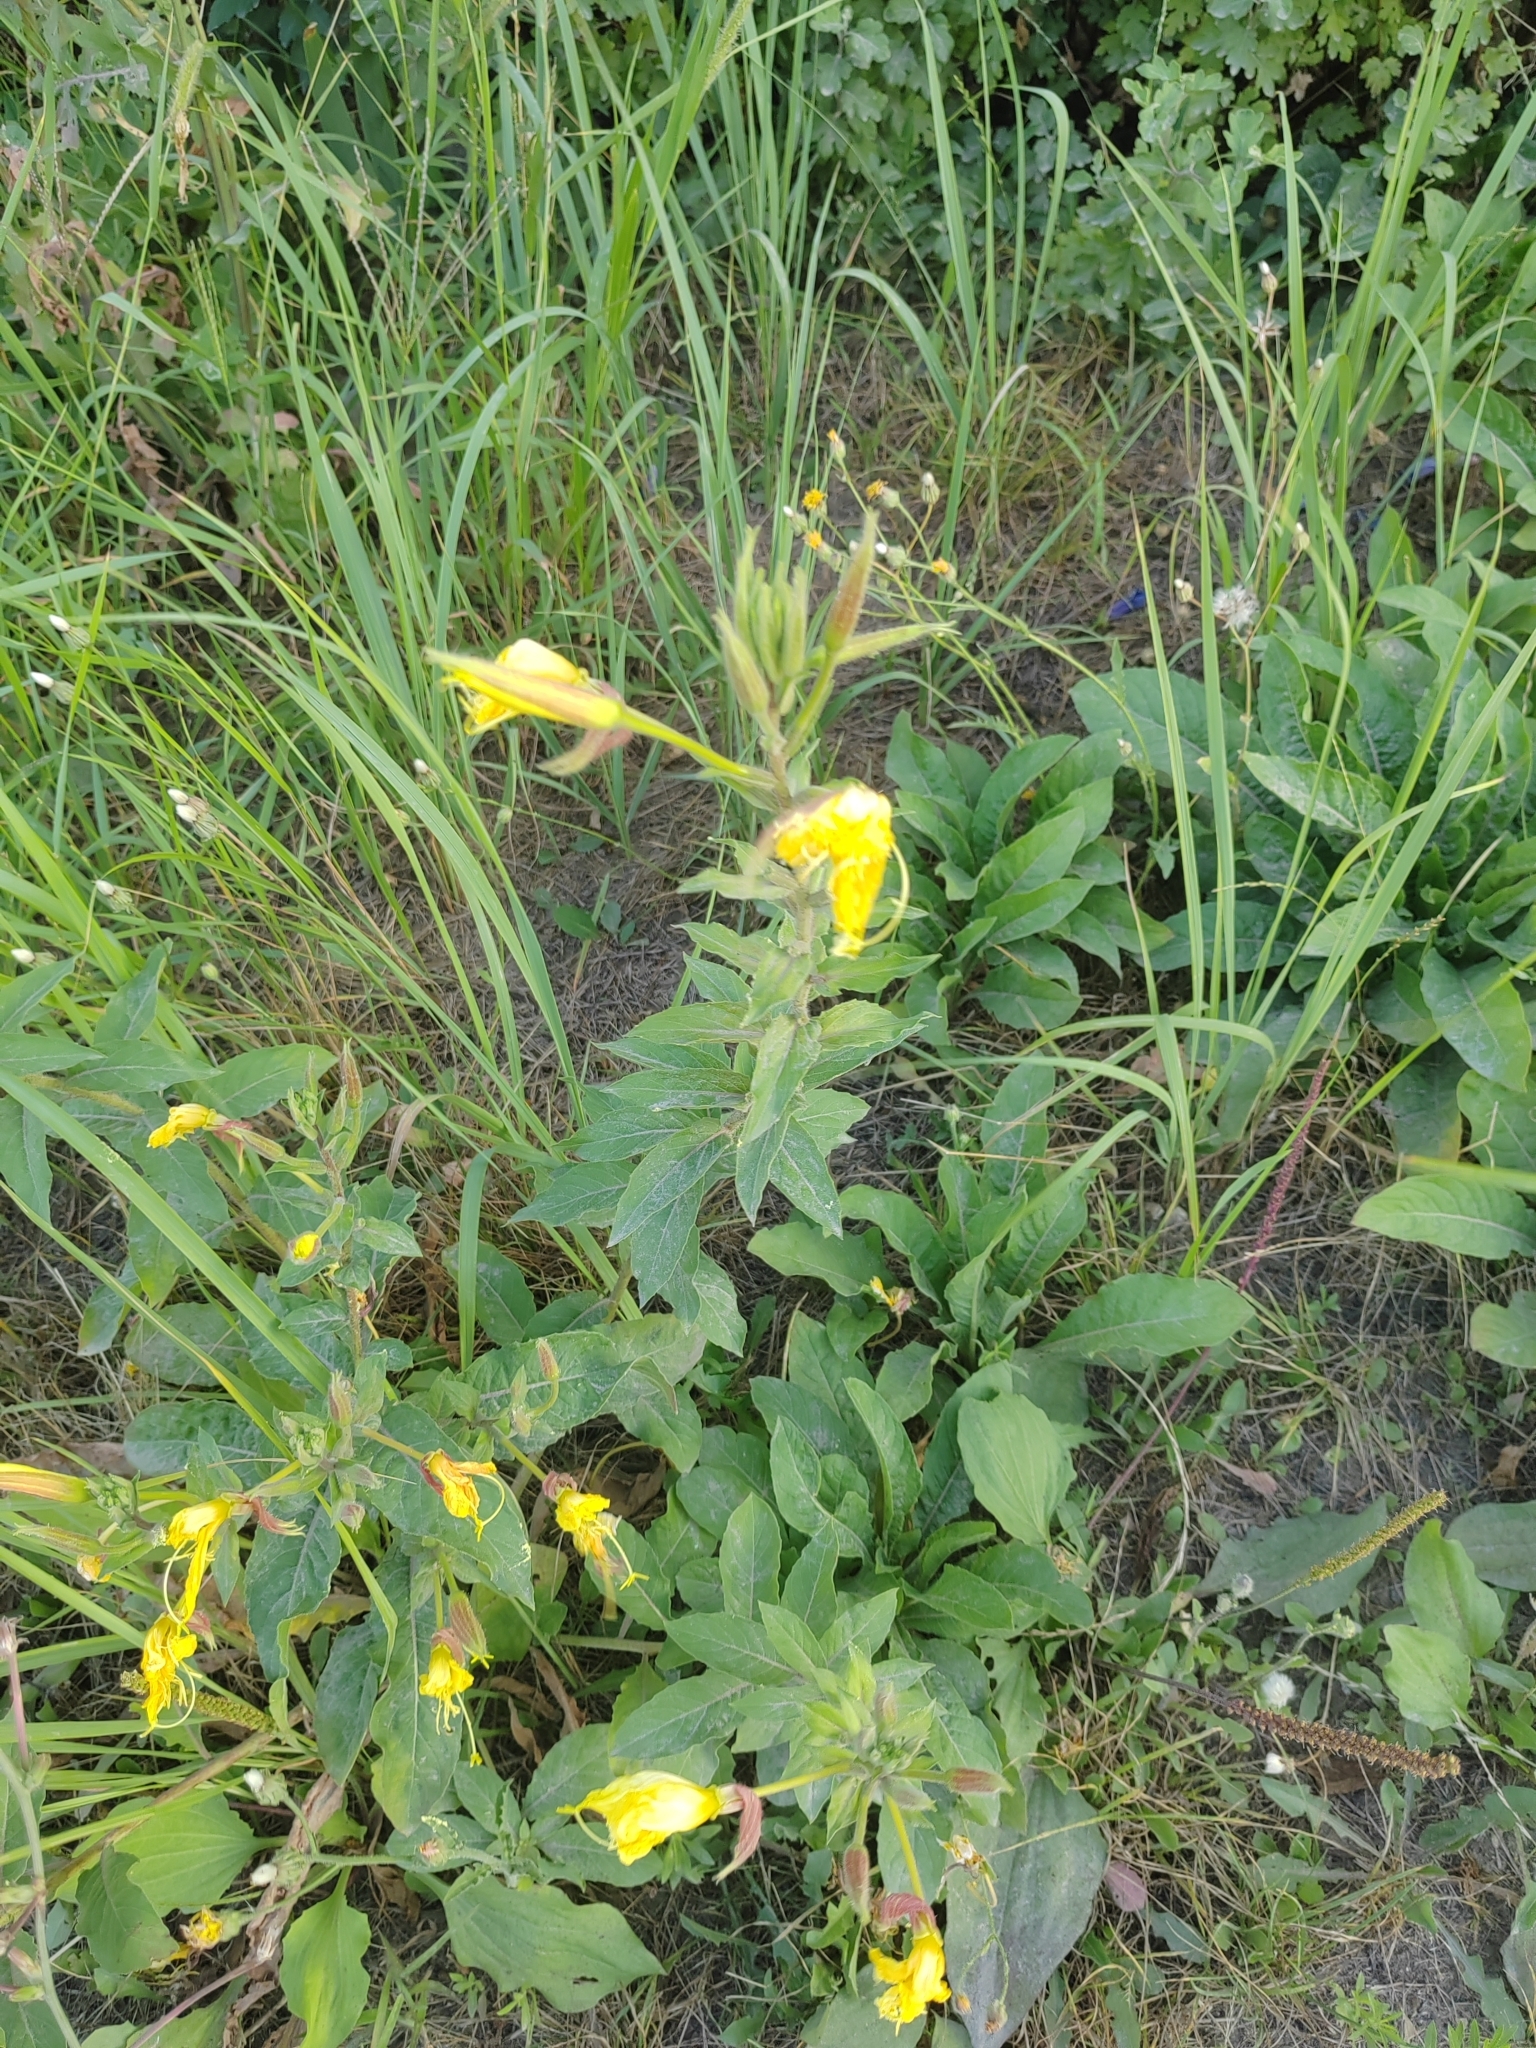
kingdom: Plantae
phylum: Tracheophyta
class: Magnoliopsida
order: Myrtales
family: Onagraceae
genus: Oenothera
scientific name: Oenothera glazioviana
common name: Large-flowered evening-primrose
